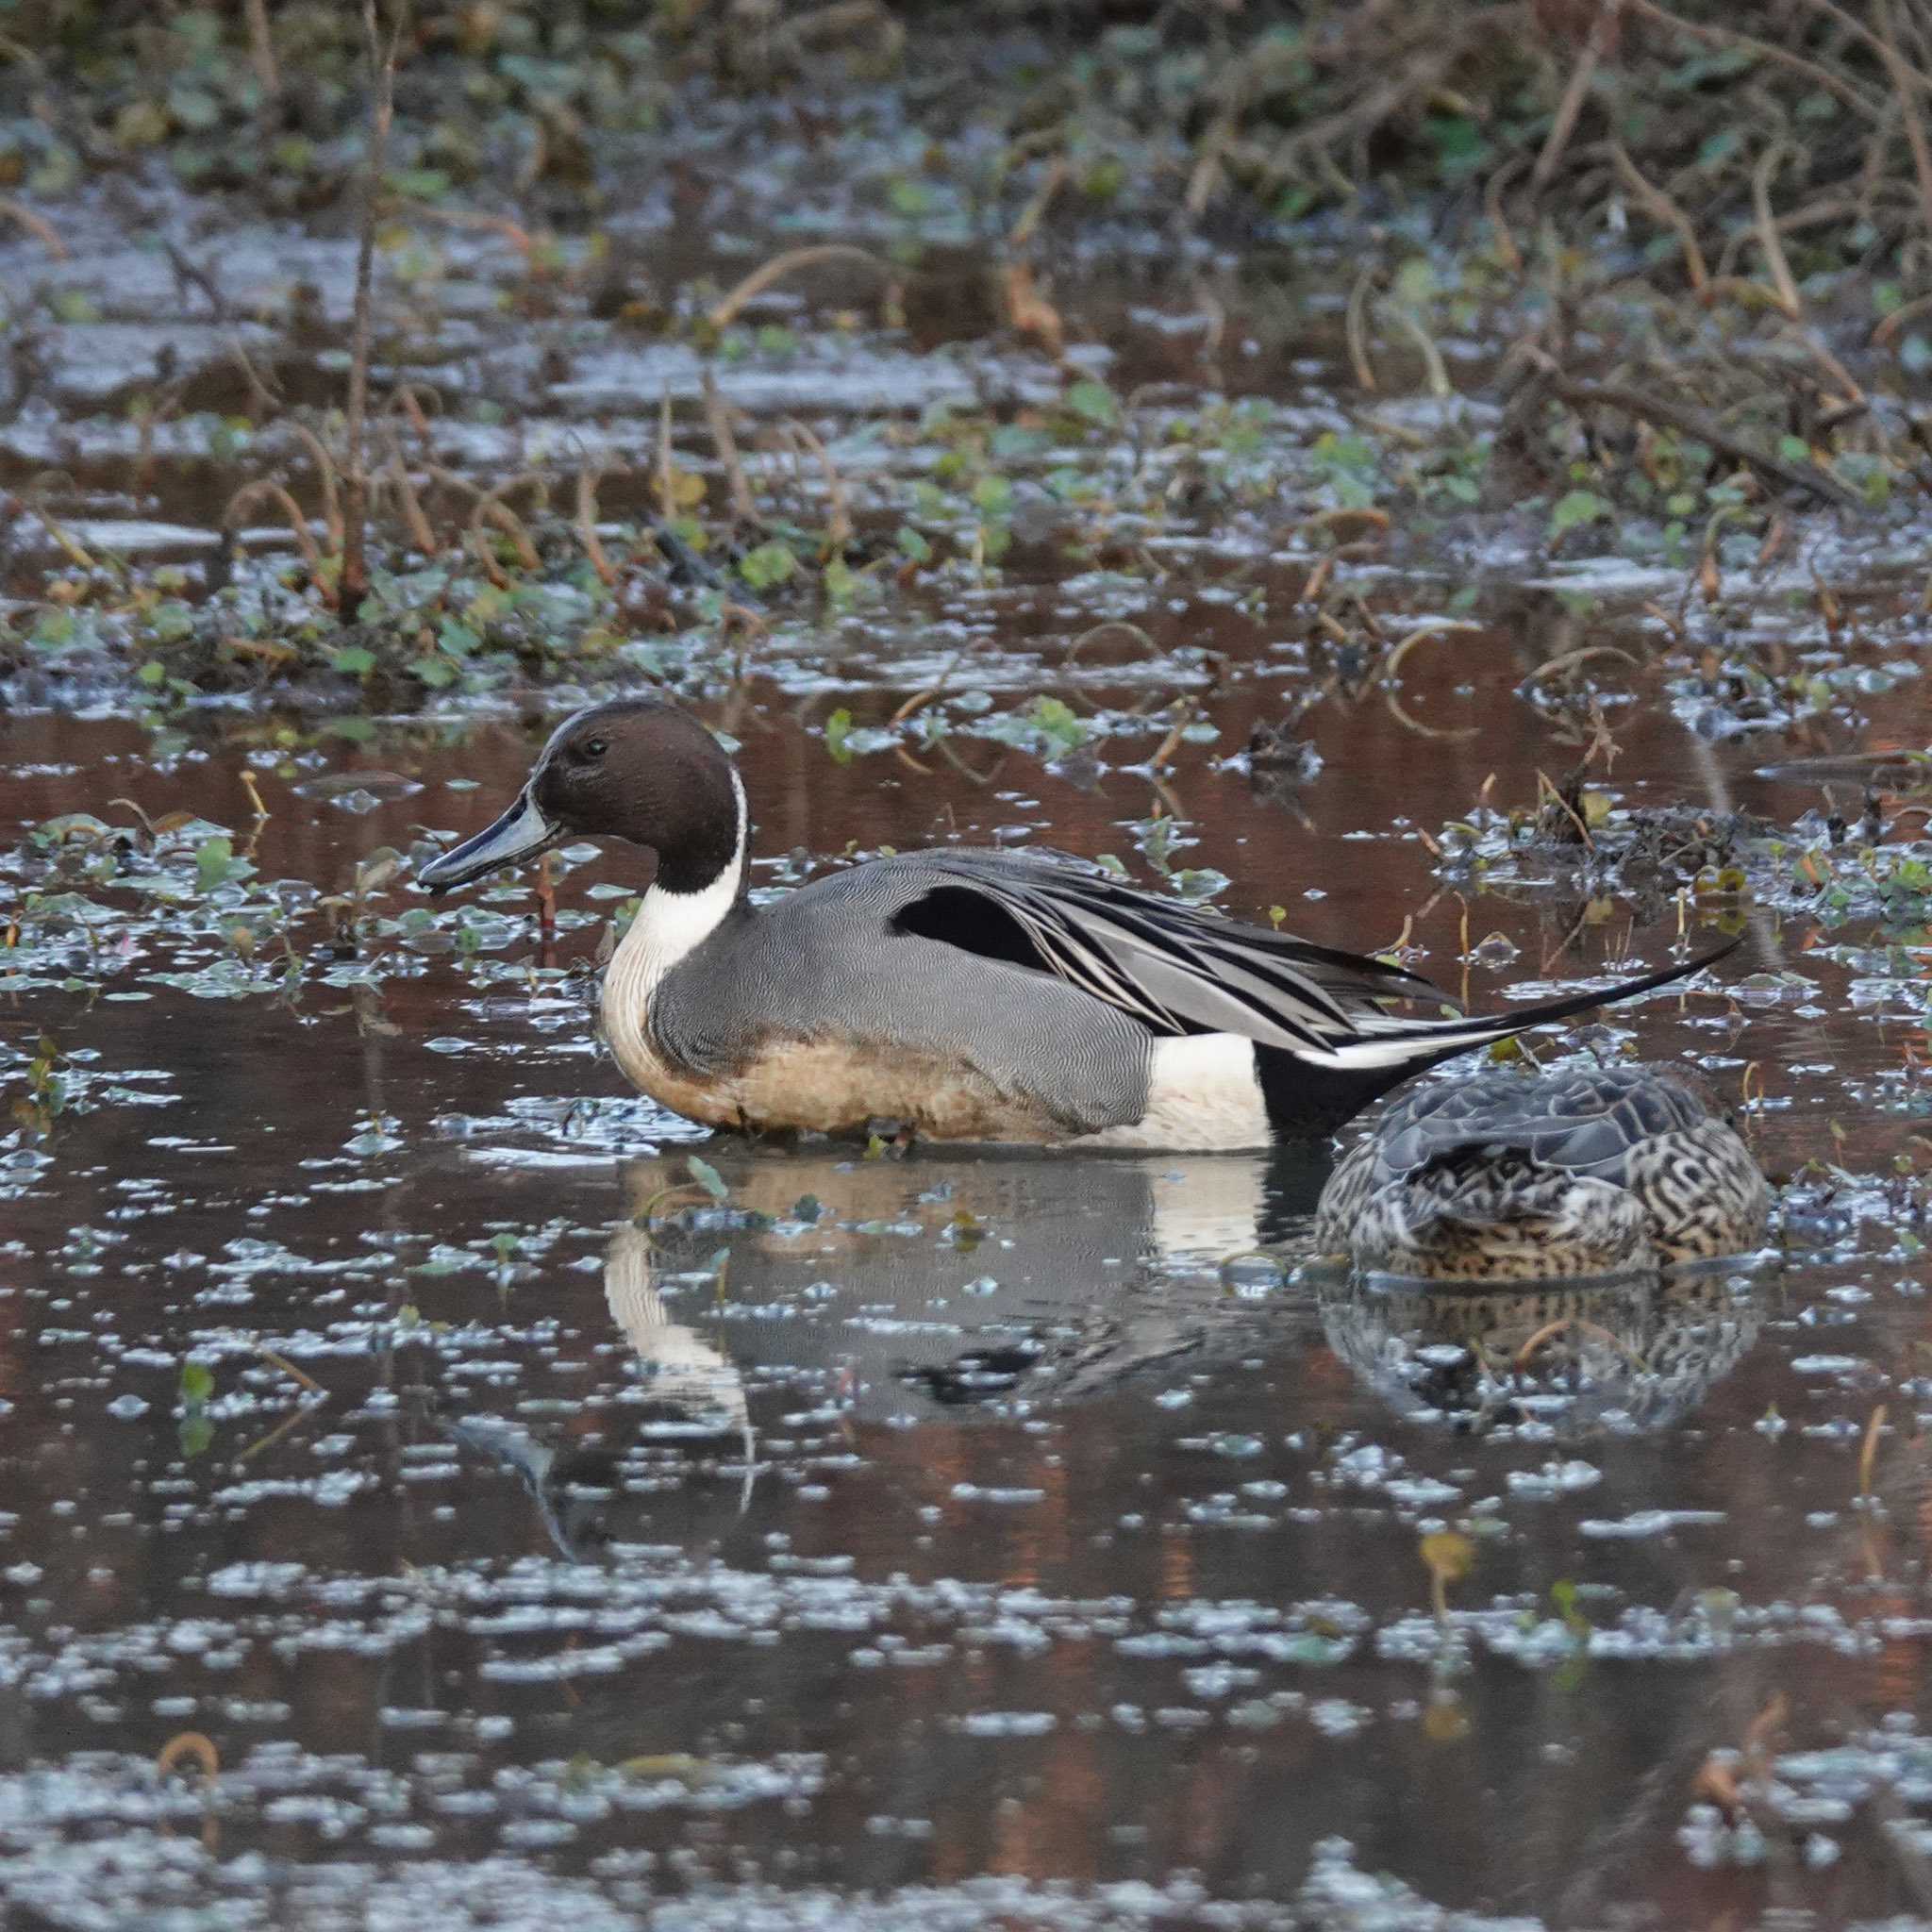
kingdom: Animalia
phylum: Chordata
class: Aves
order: Anseriformes
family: Anatidae
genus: Anas
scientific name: Anas acuta
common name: Northern pintail
